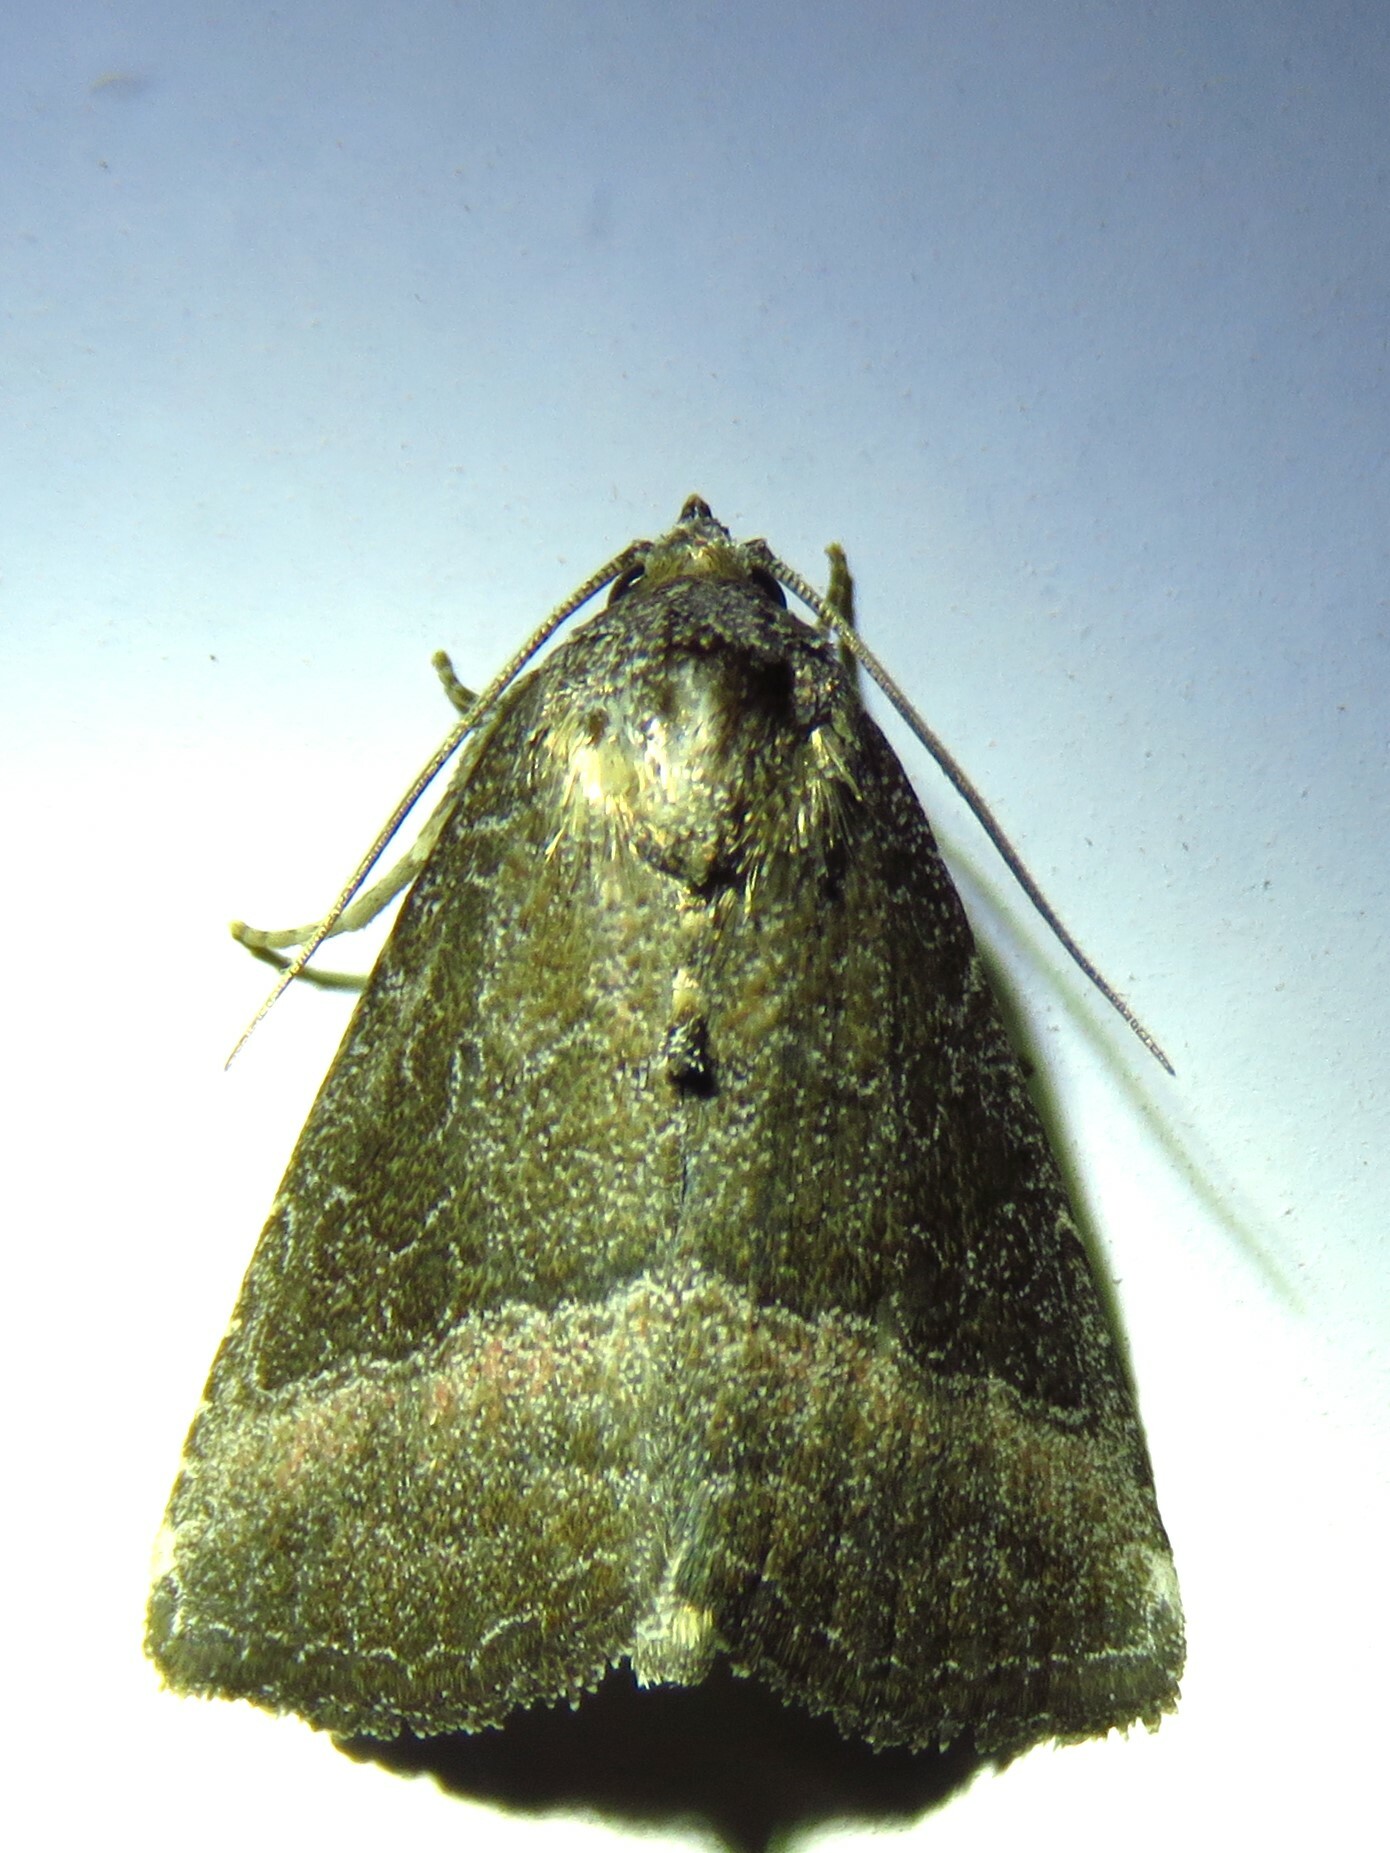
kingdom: Animalia
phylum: Arthropoda
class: Insecta
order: Lepidoptera
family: Noctuidae
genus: Ogdoconta
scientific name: Ogdoconta cinereola
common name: Common pinkband
